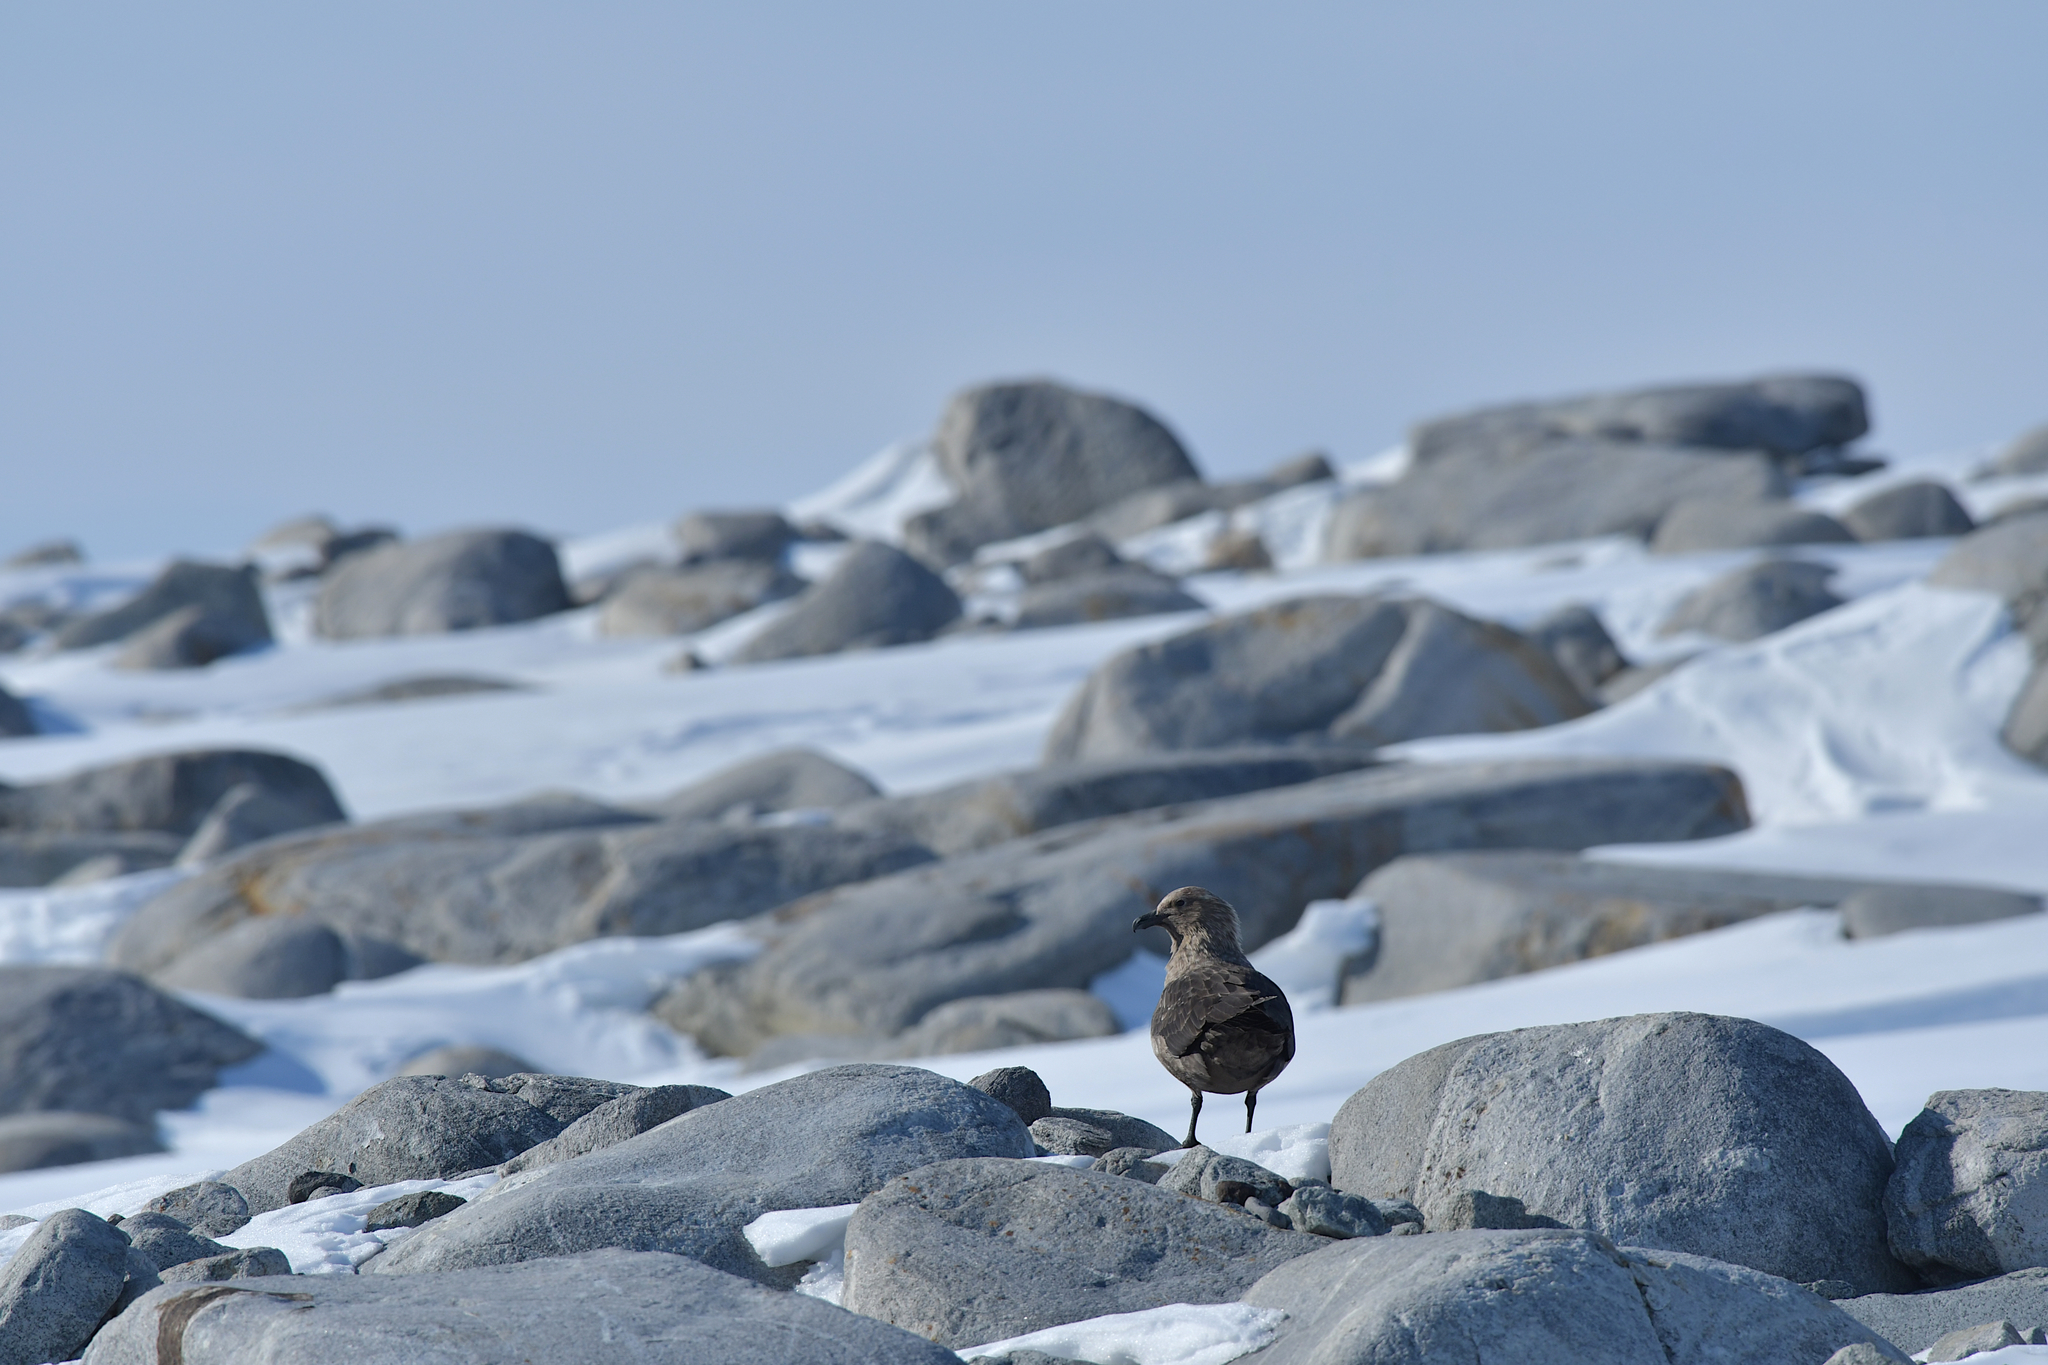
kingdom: Animalia
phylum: Chordata
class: Aves
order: Charadriiformes
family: Stercorariidae
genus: Stercorarius
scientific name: Stercorarius maccormicki
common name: South polar skua
